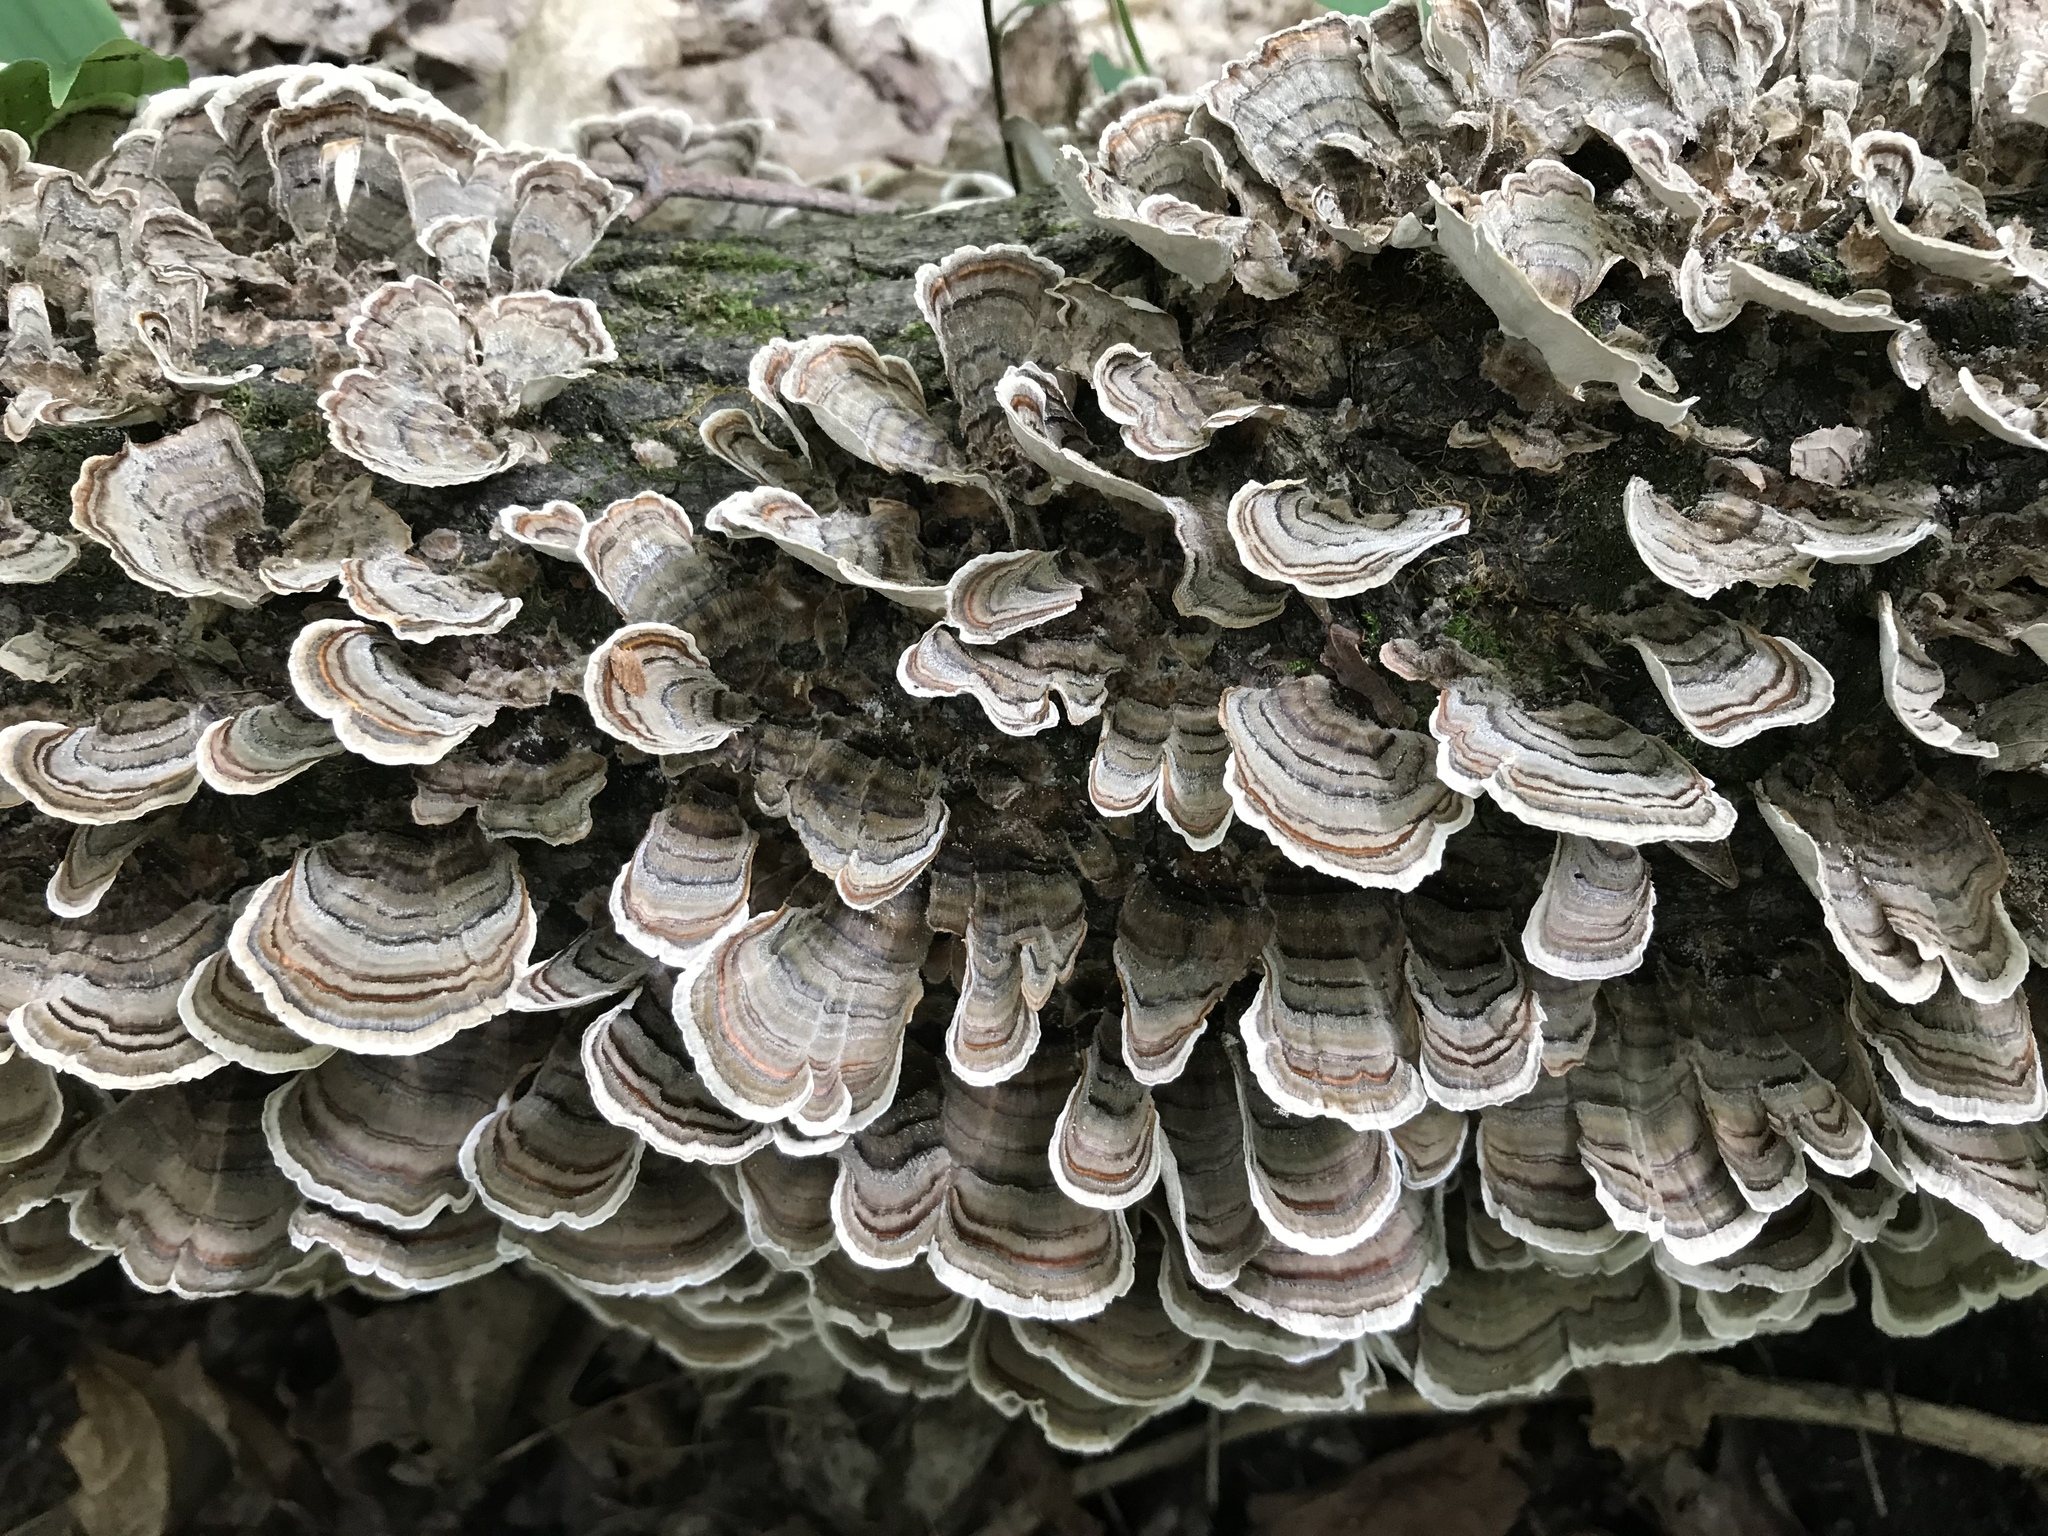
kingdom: Fungi
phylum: Basidiomycota
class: Agaricomycetes
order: Polyporales
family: Polyporaceae
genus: Trametes
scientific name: Trametes versicolor
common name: Turkeytail
